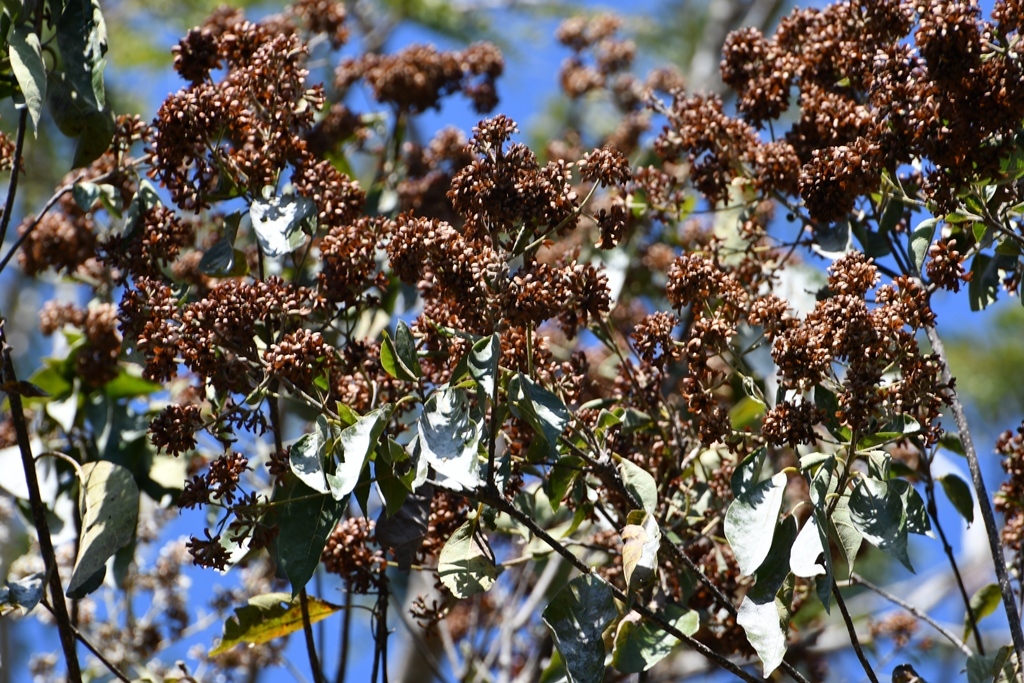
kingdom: Plantae
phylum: Tracheophyta
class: Magnoliopsida
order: Boraginales
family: Cordiaceae
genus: Cordia
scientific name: Cordia alliodora
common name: Spanish elm
